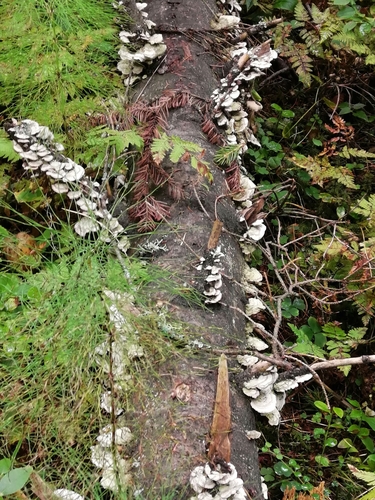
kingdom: Fungi
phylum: Basidiomycota
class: Agaricomycetes
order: Hymenochaetales
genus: Trichaptum
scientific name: Trichaptum fuscoviolaceum
